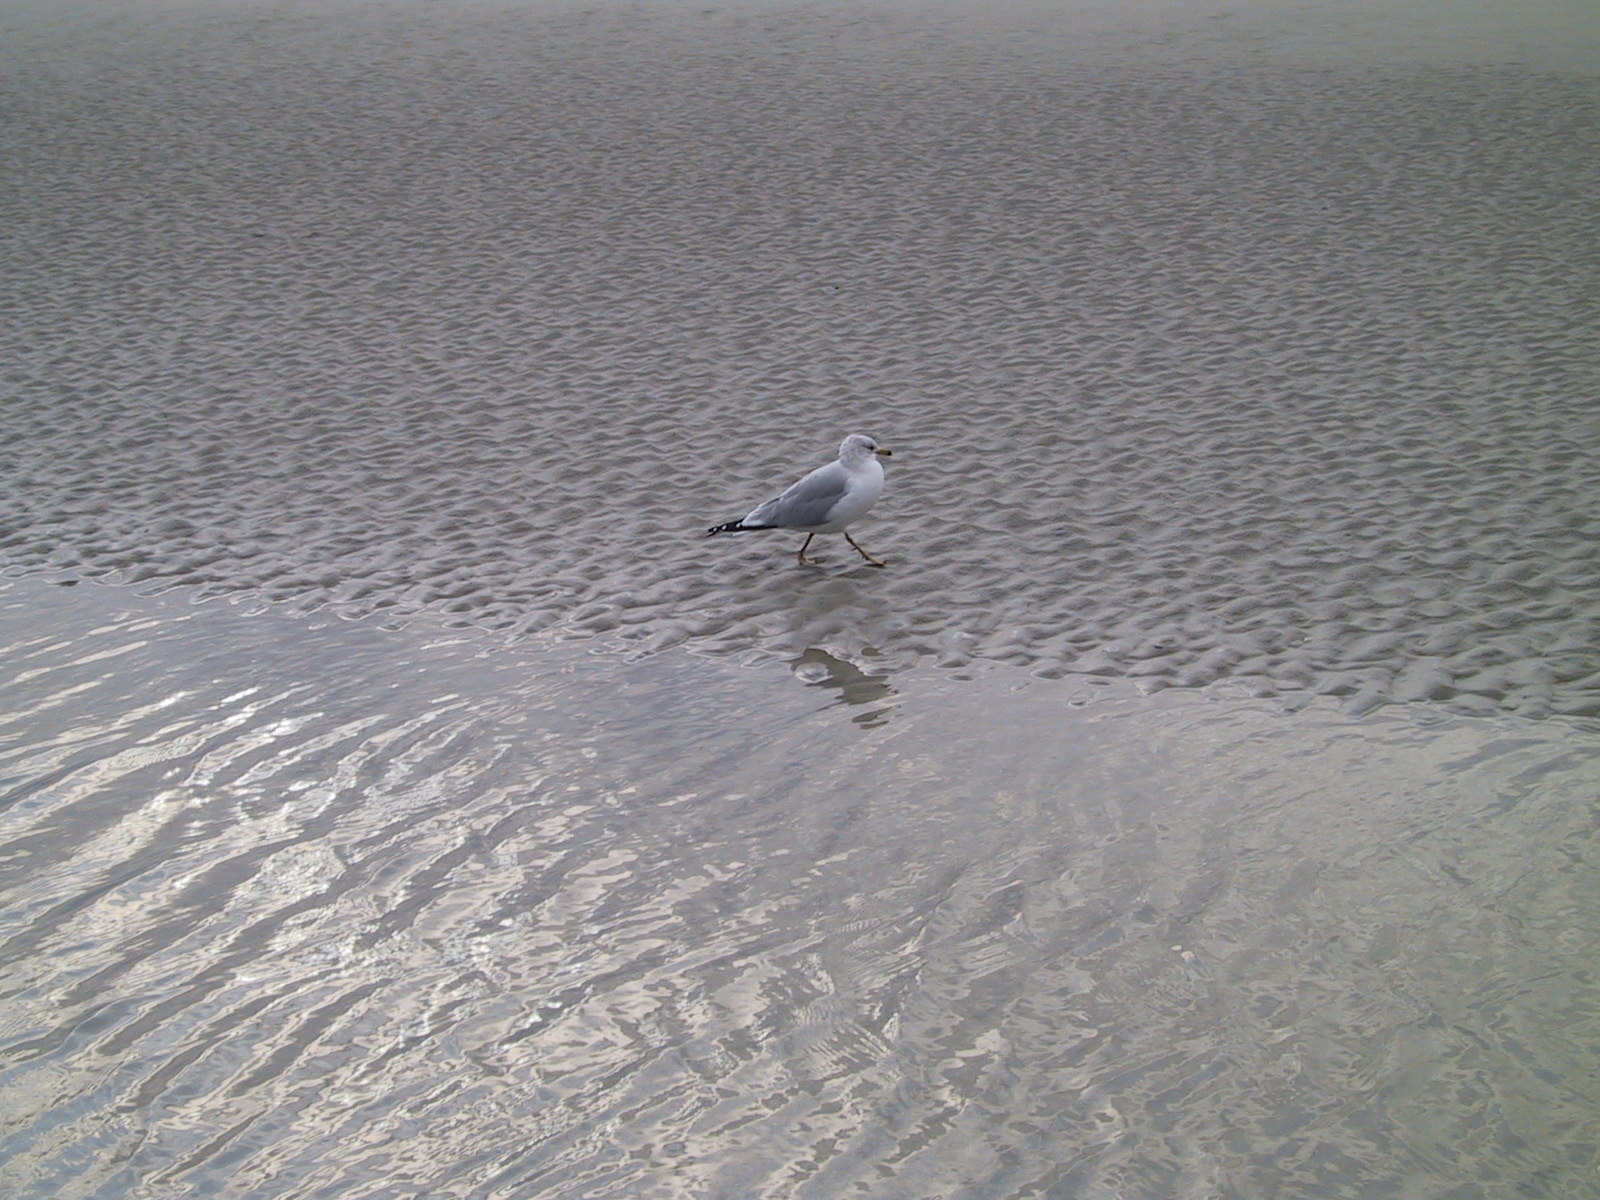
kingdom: Animalia
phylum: Chordata
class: Aves
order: Charadriiformes
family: Laridae
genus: Larus
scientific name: Larus delawarensis
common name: Ring-billed gull
